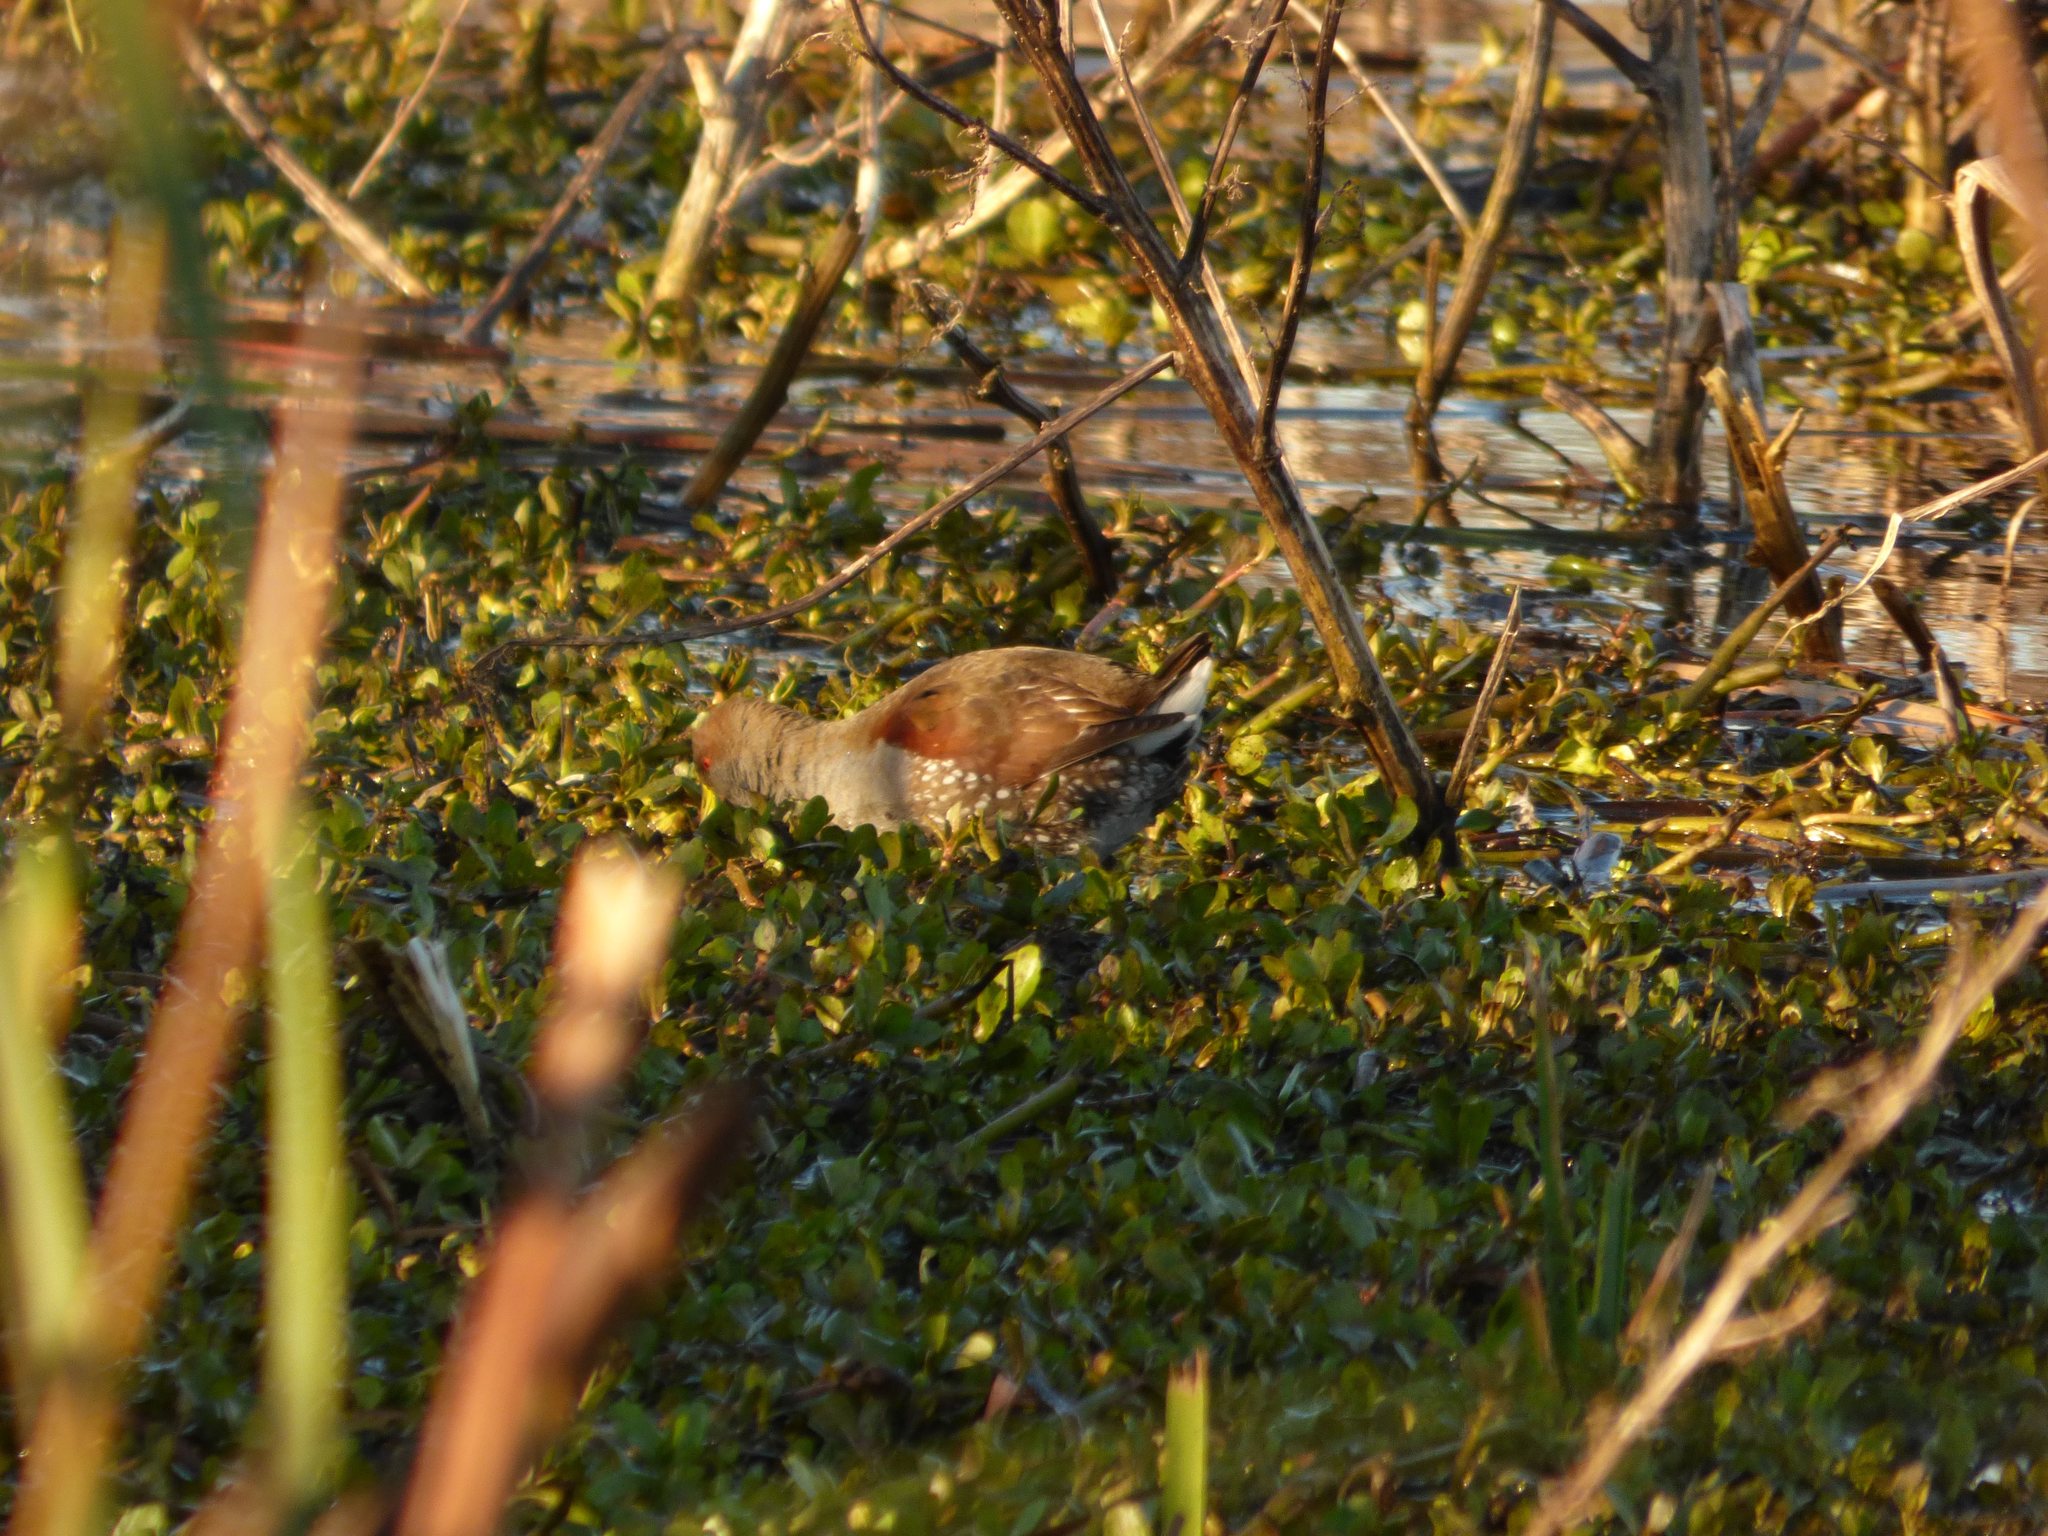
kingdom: Animalia
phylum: Chordata
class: Aves
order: Gruiformes
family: Rallidae
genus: Gallinula
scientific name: Gallinula melanops
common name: Spot-flanked gallinule
